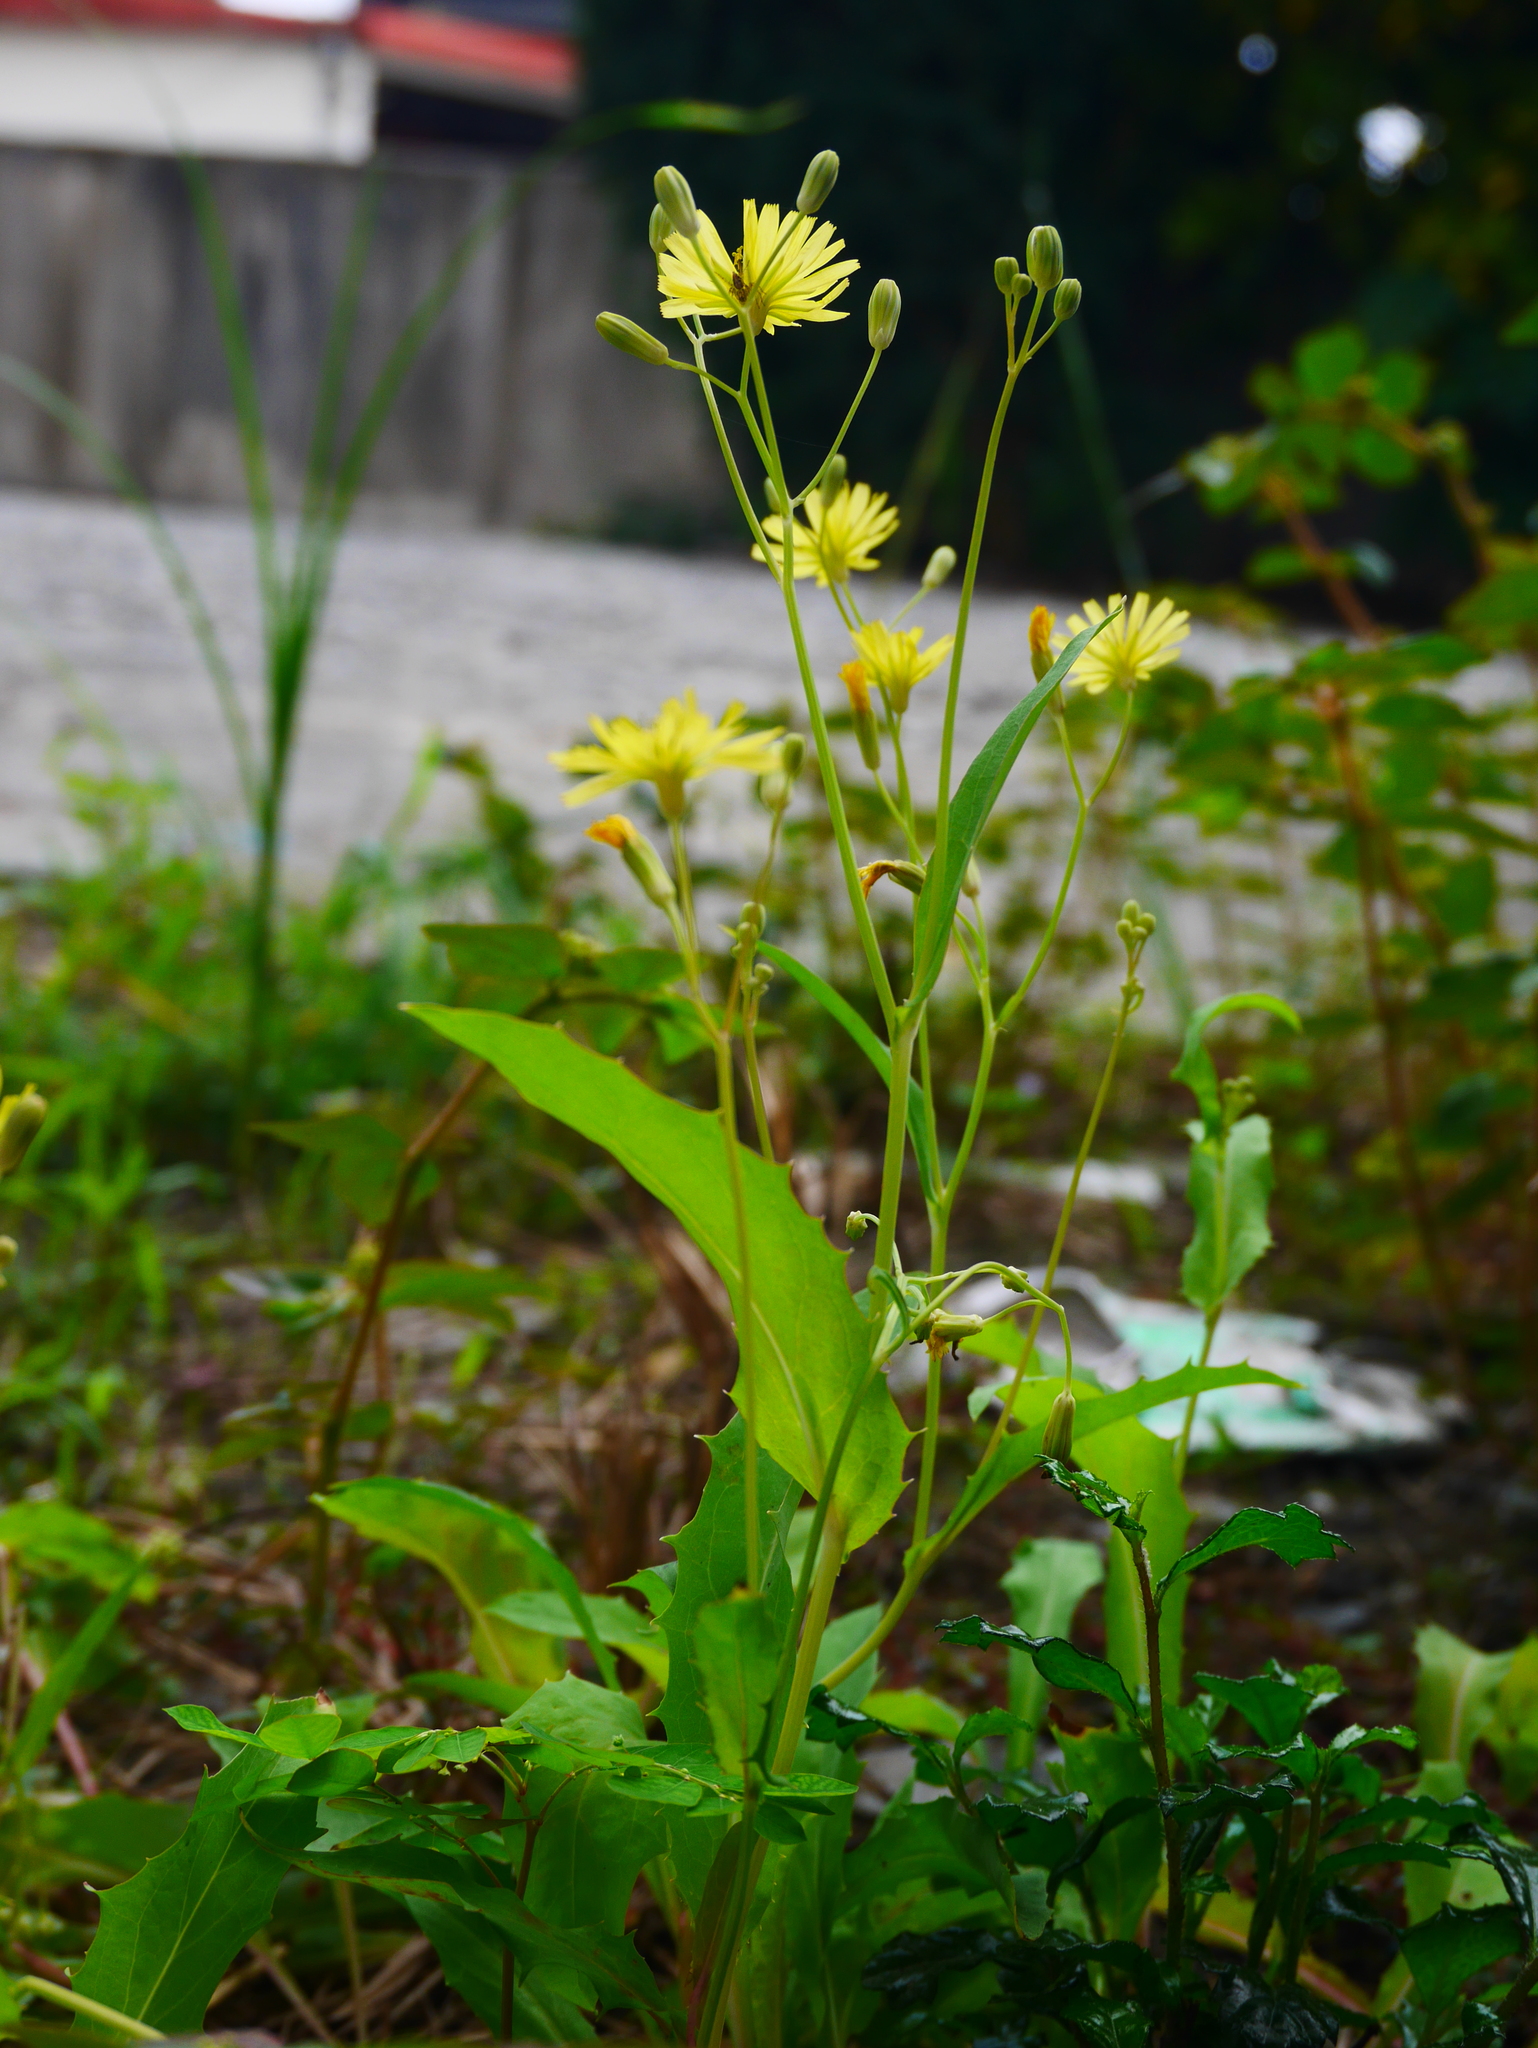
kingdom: Plantae
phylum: Tracheophyta
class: Magnoliopsida
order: Asterales
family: Asteraceae
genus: Ixeris
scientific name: Ixeris chinensis
